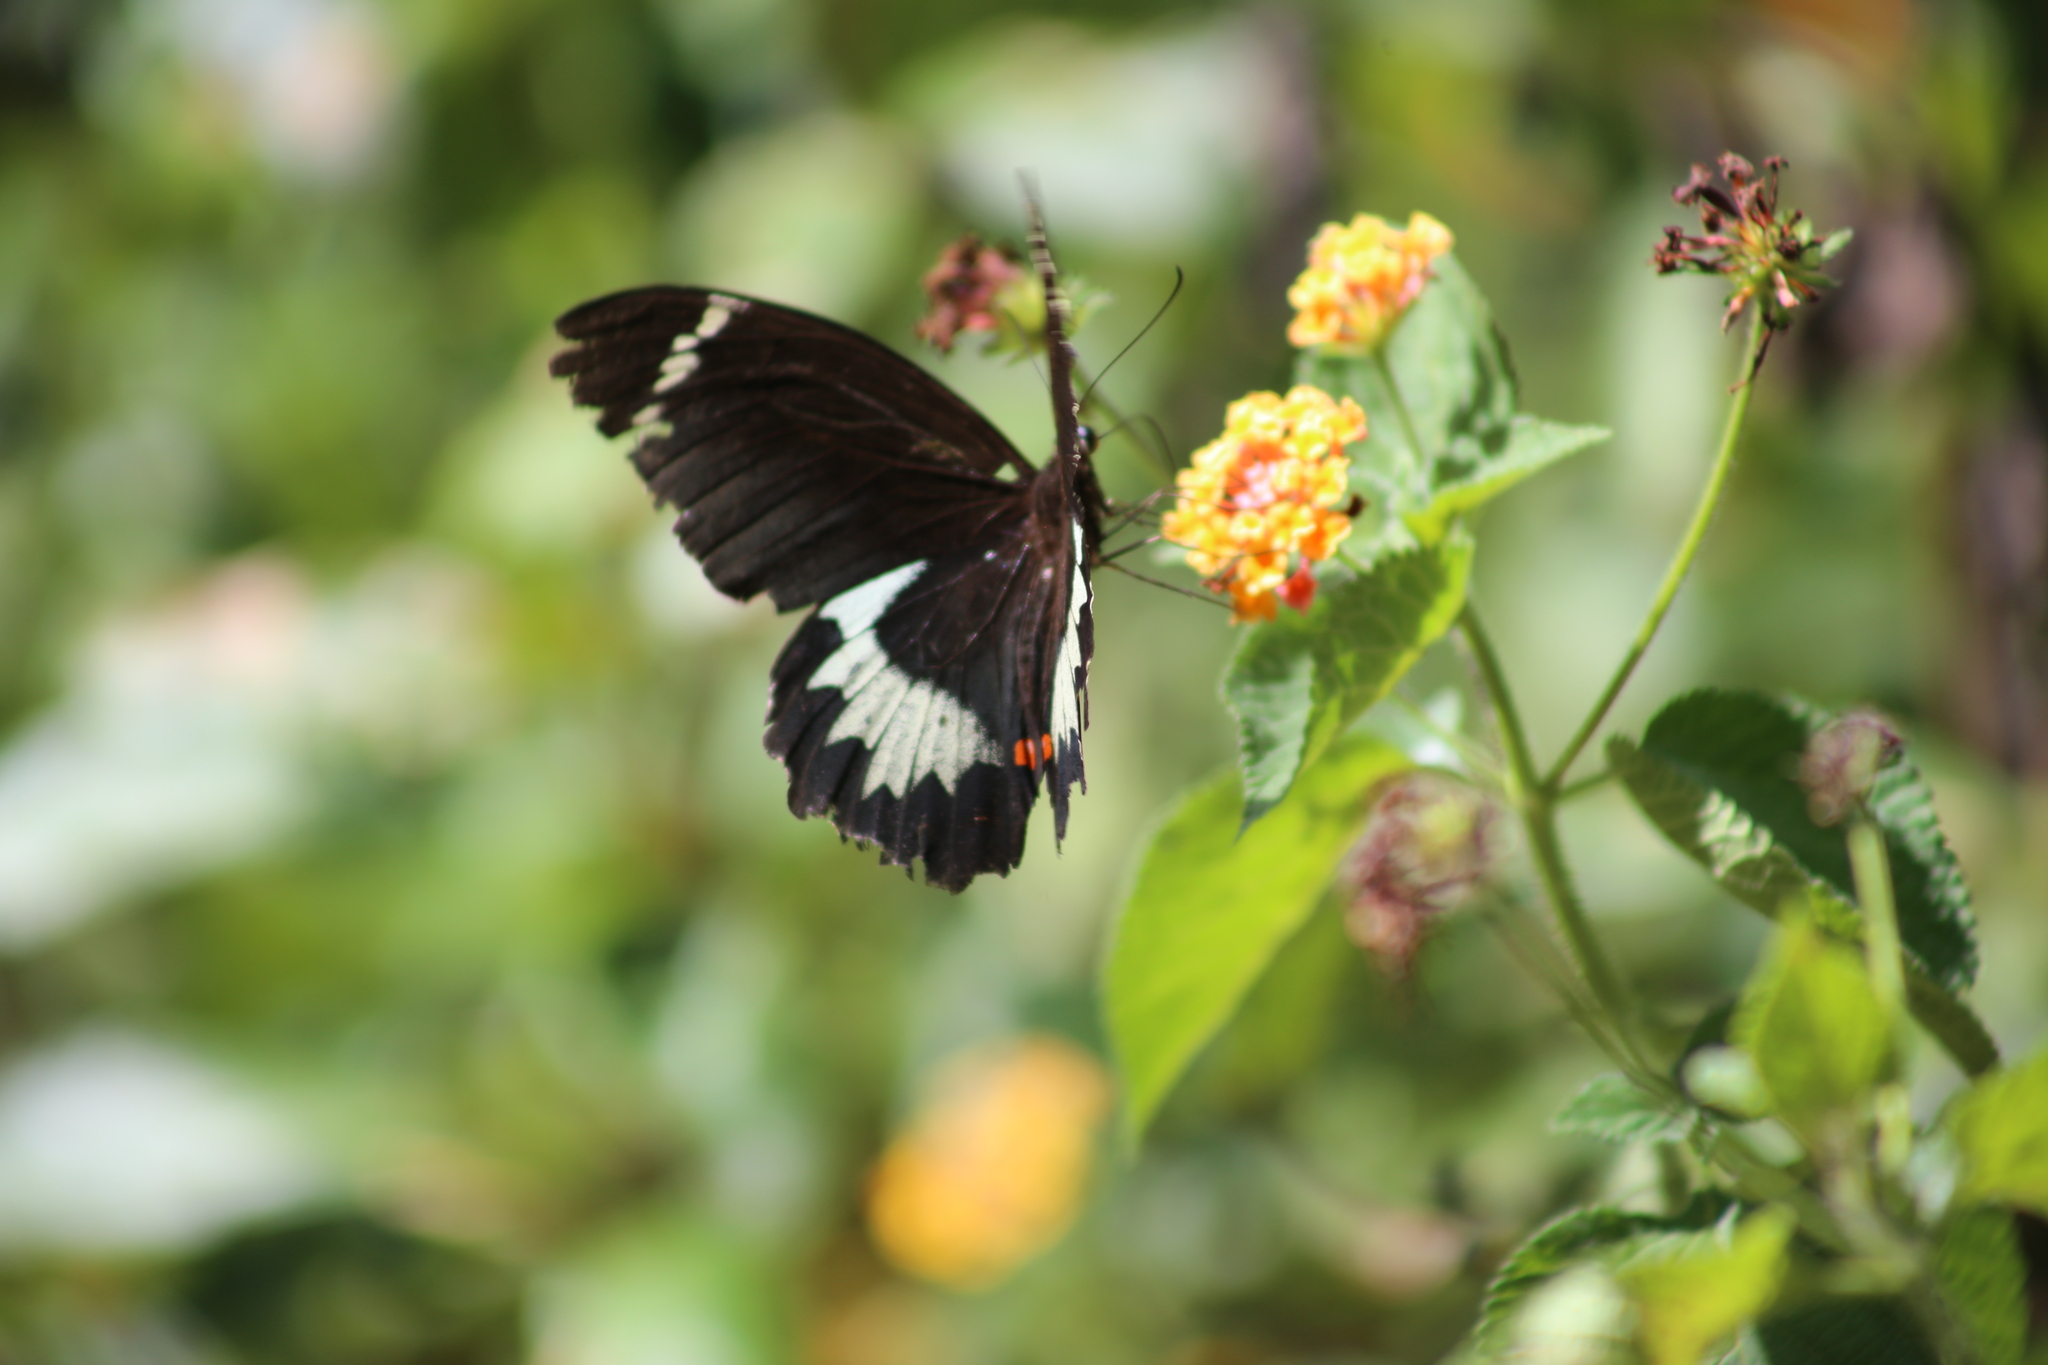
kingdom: Animalia
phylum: Arthropoda
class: Insecta
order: Lepidoptera
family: Papilionidae
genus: Papilio
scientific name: Papilio aegeus
